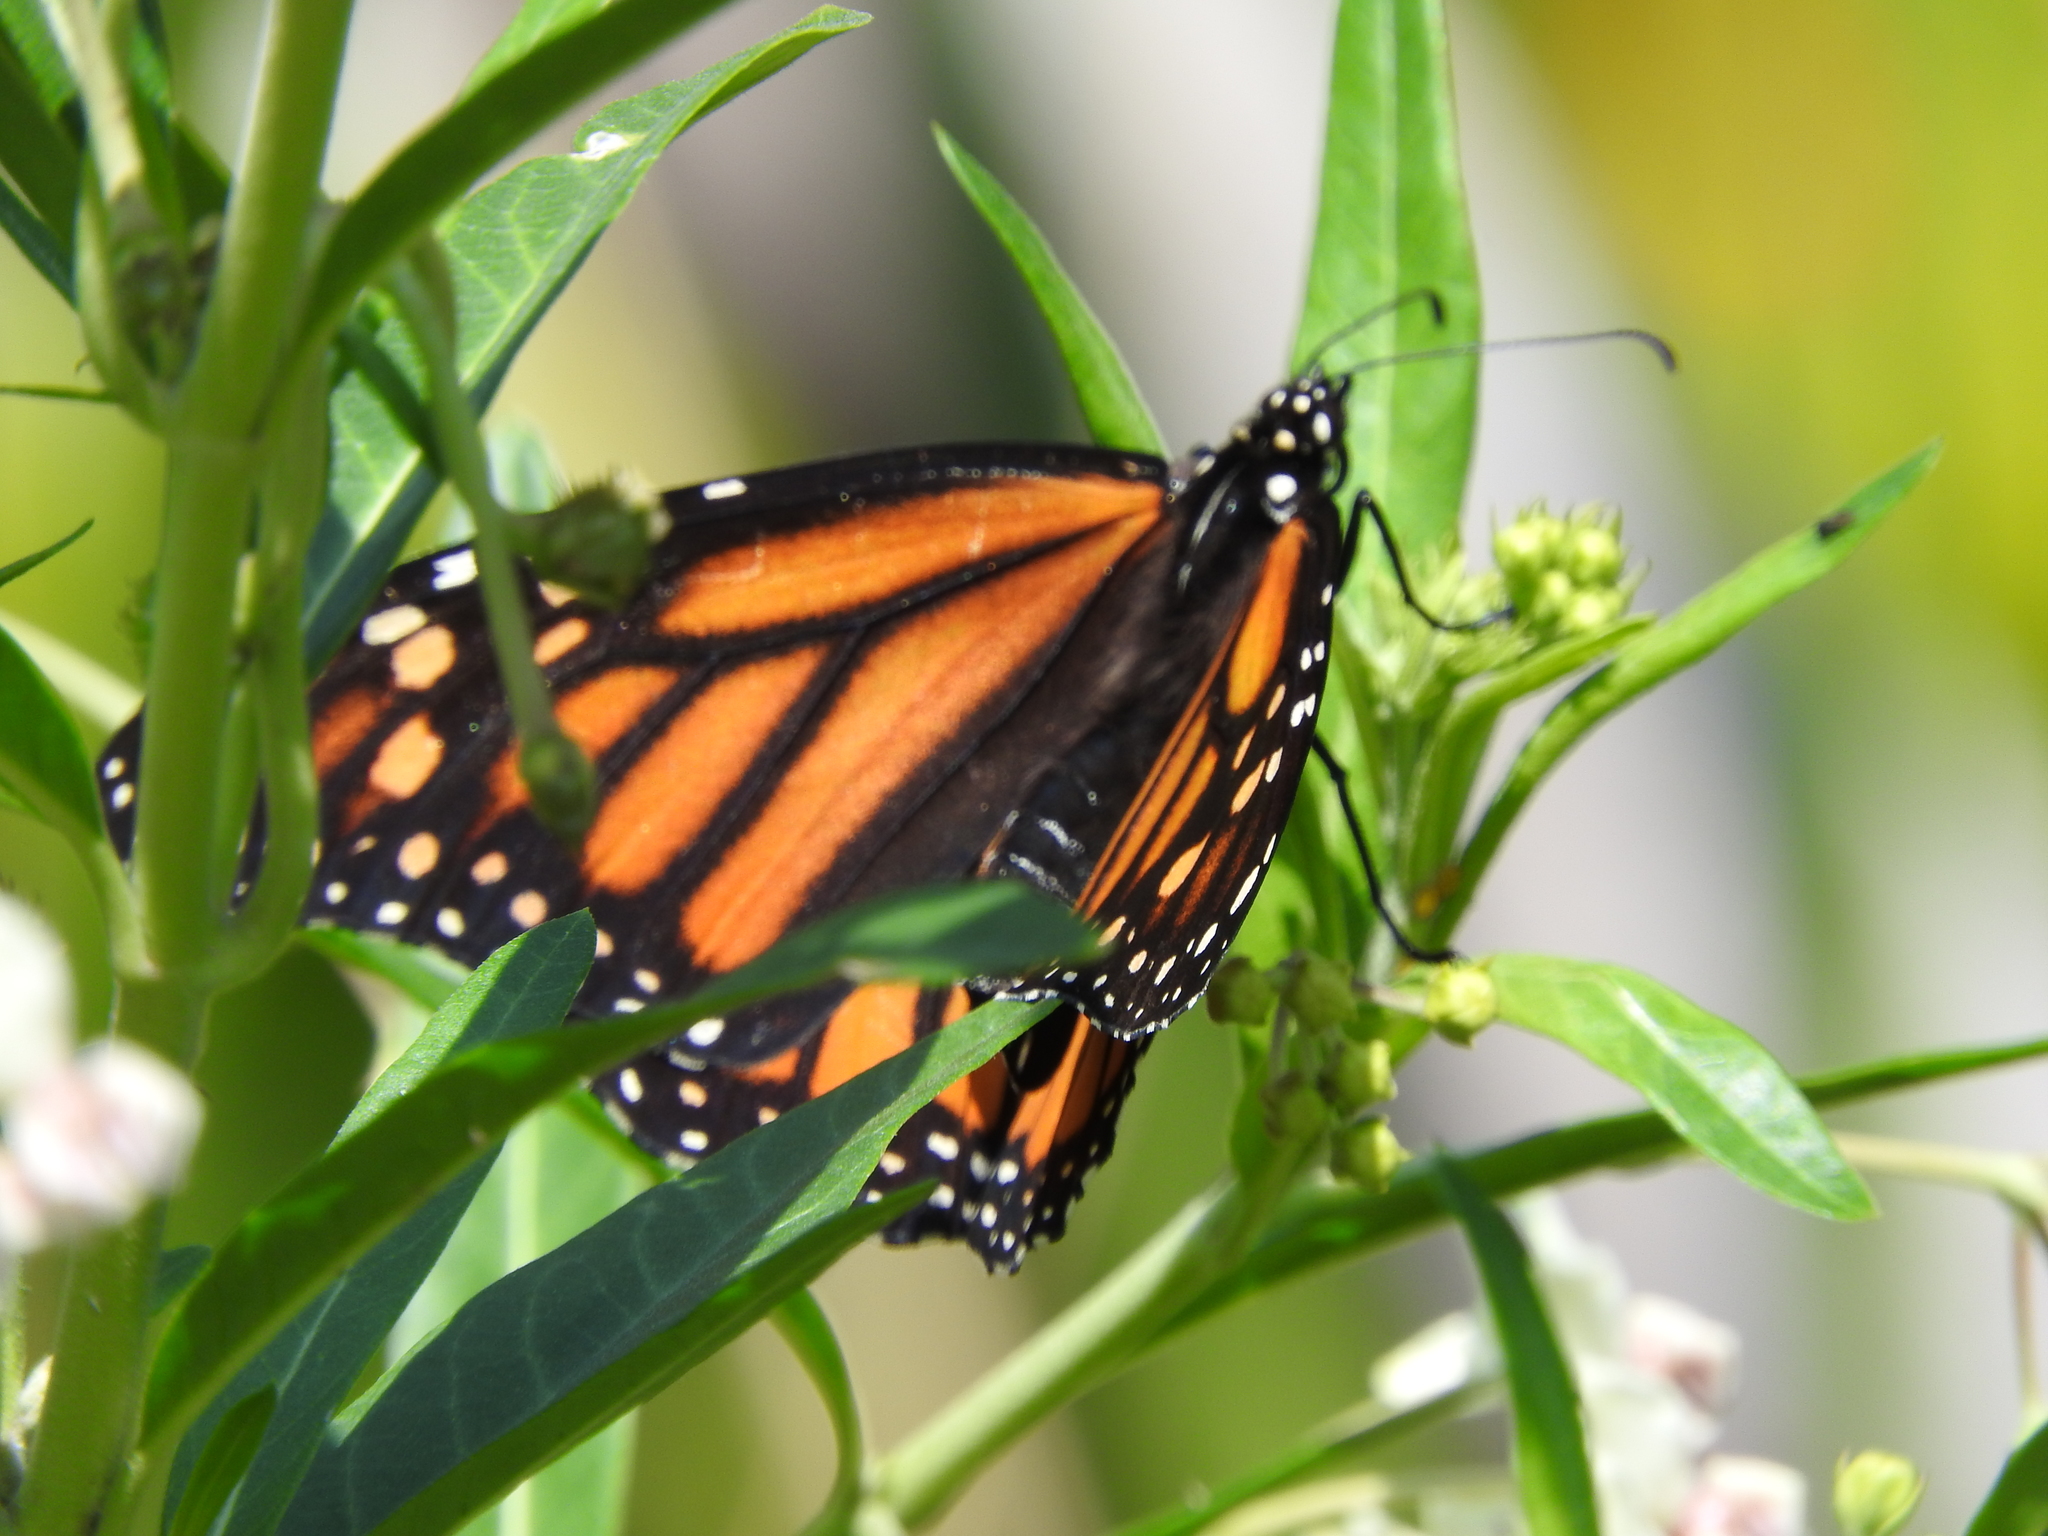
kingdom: Animalia
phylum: Arthropoda
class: Insecta
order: Lepidoptera
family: Nymphalidae
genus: Danaus
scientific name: Danaus plexippus
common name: Monarch
